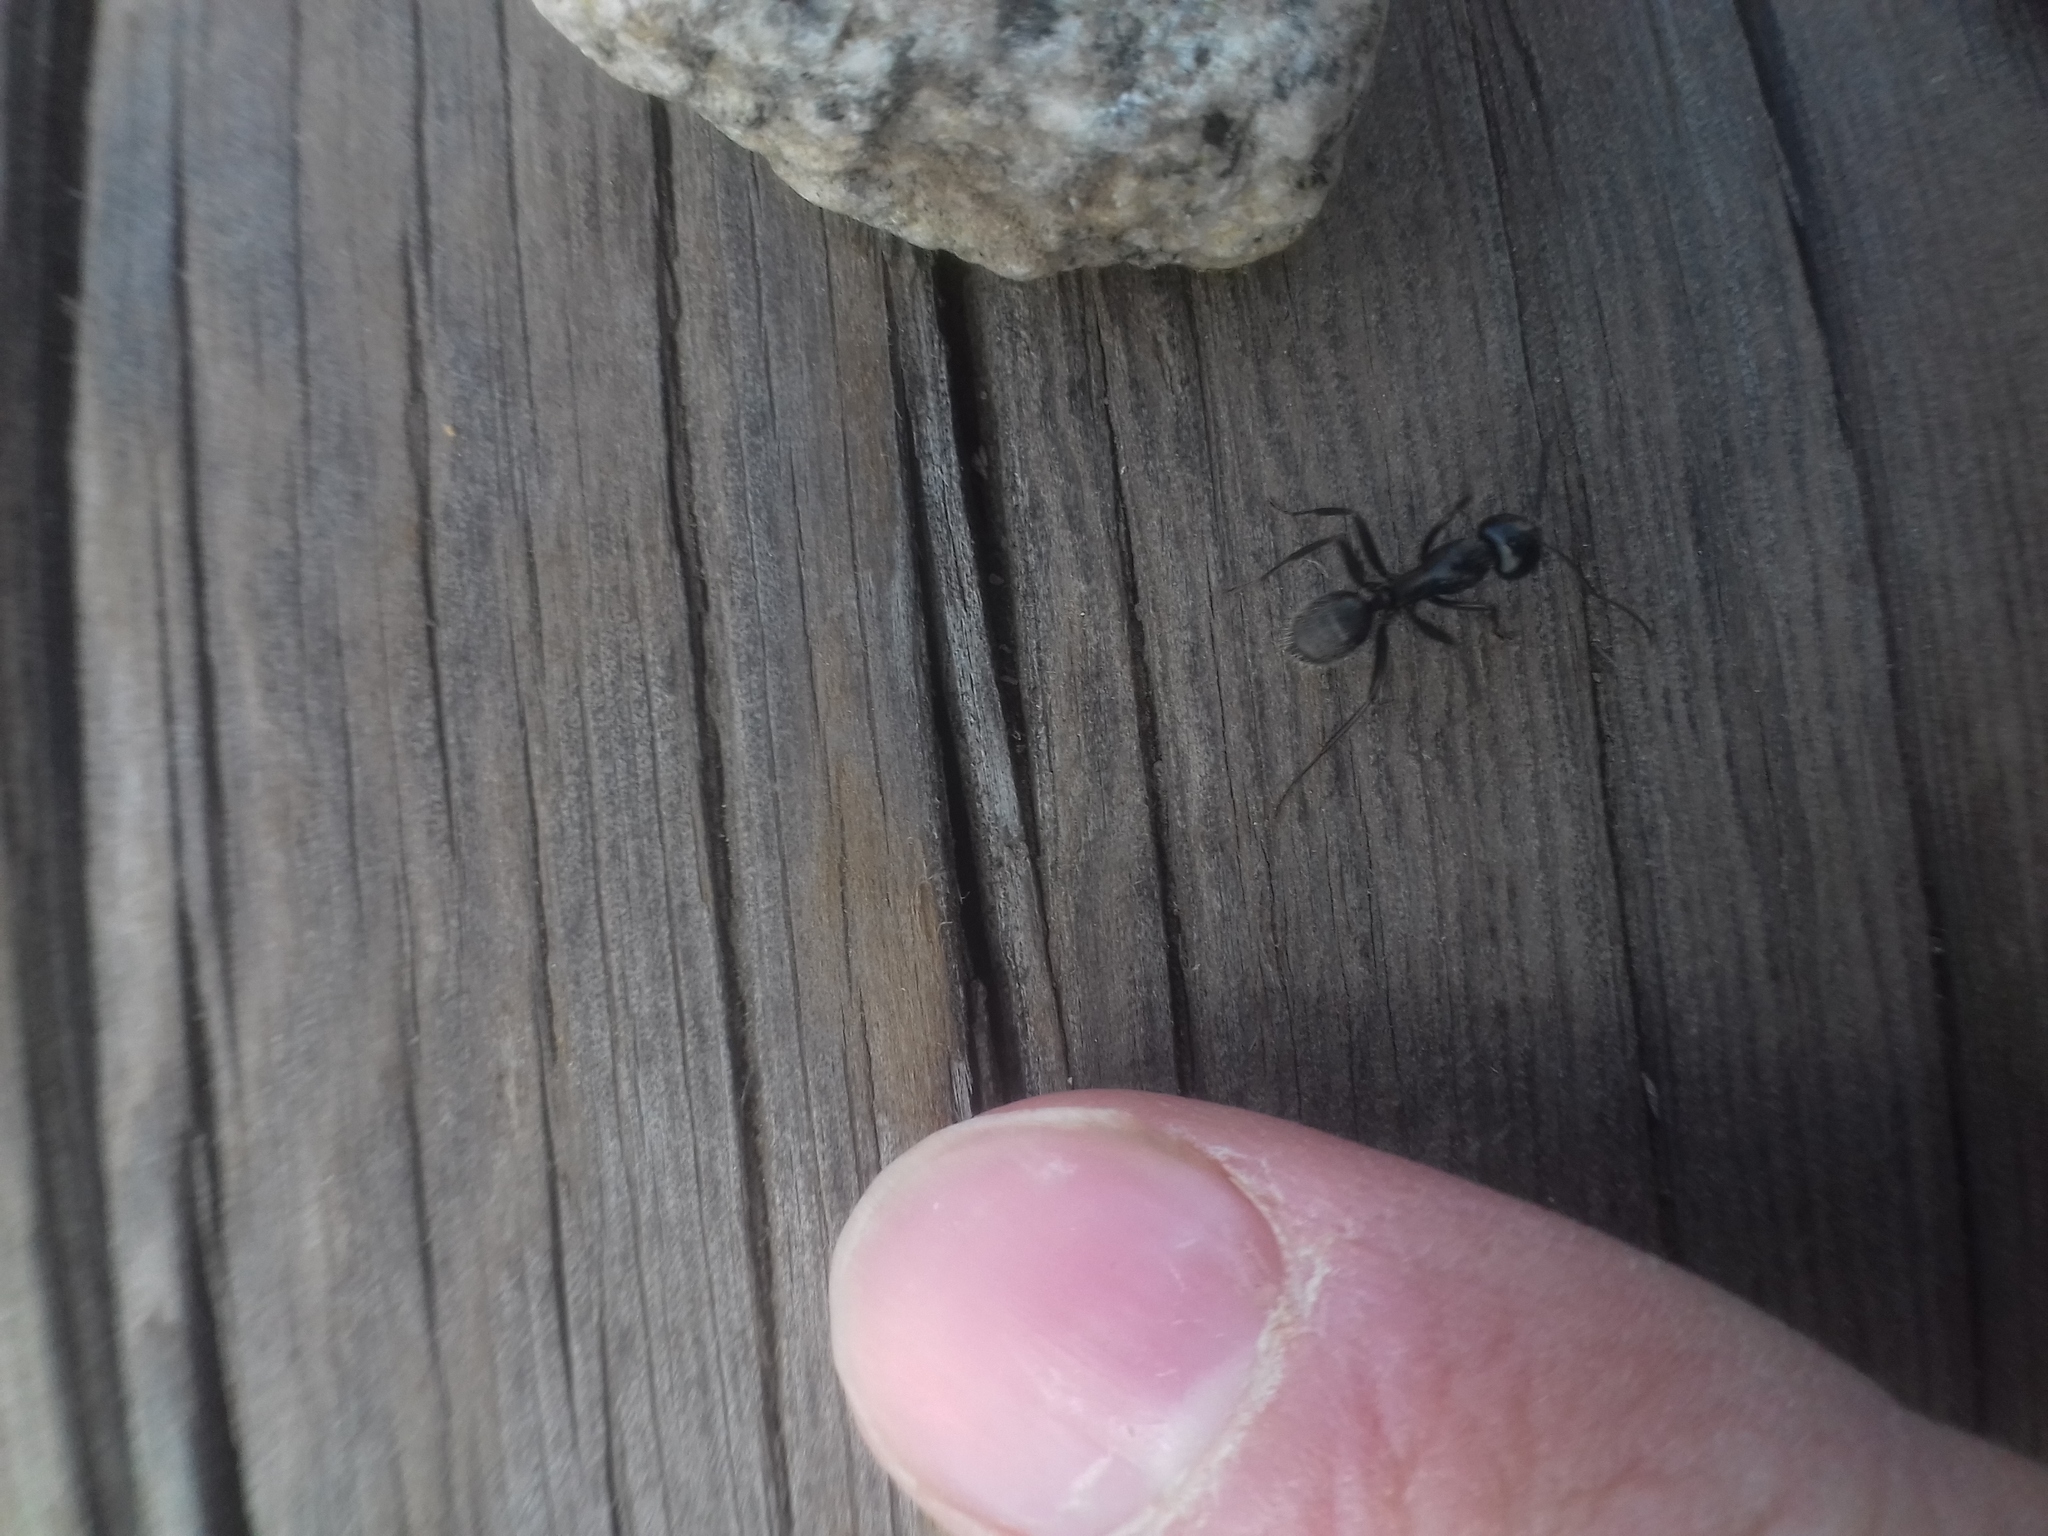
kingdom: Animalia
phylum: Arthropoda
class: Insecta
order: Hymenoptera
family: Formicidae
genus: Camponotus
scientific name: Camponotus vagus
